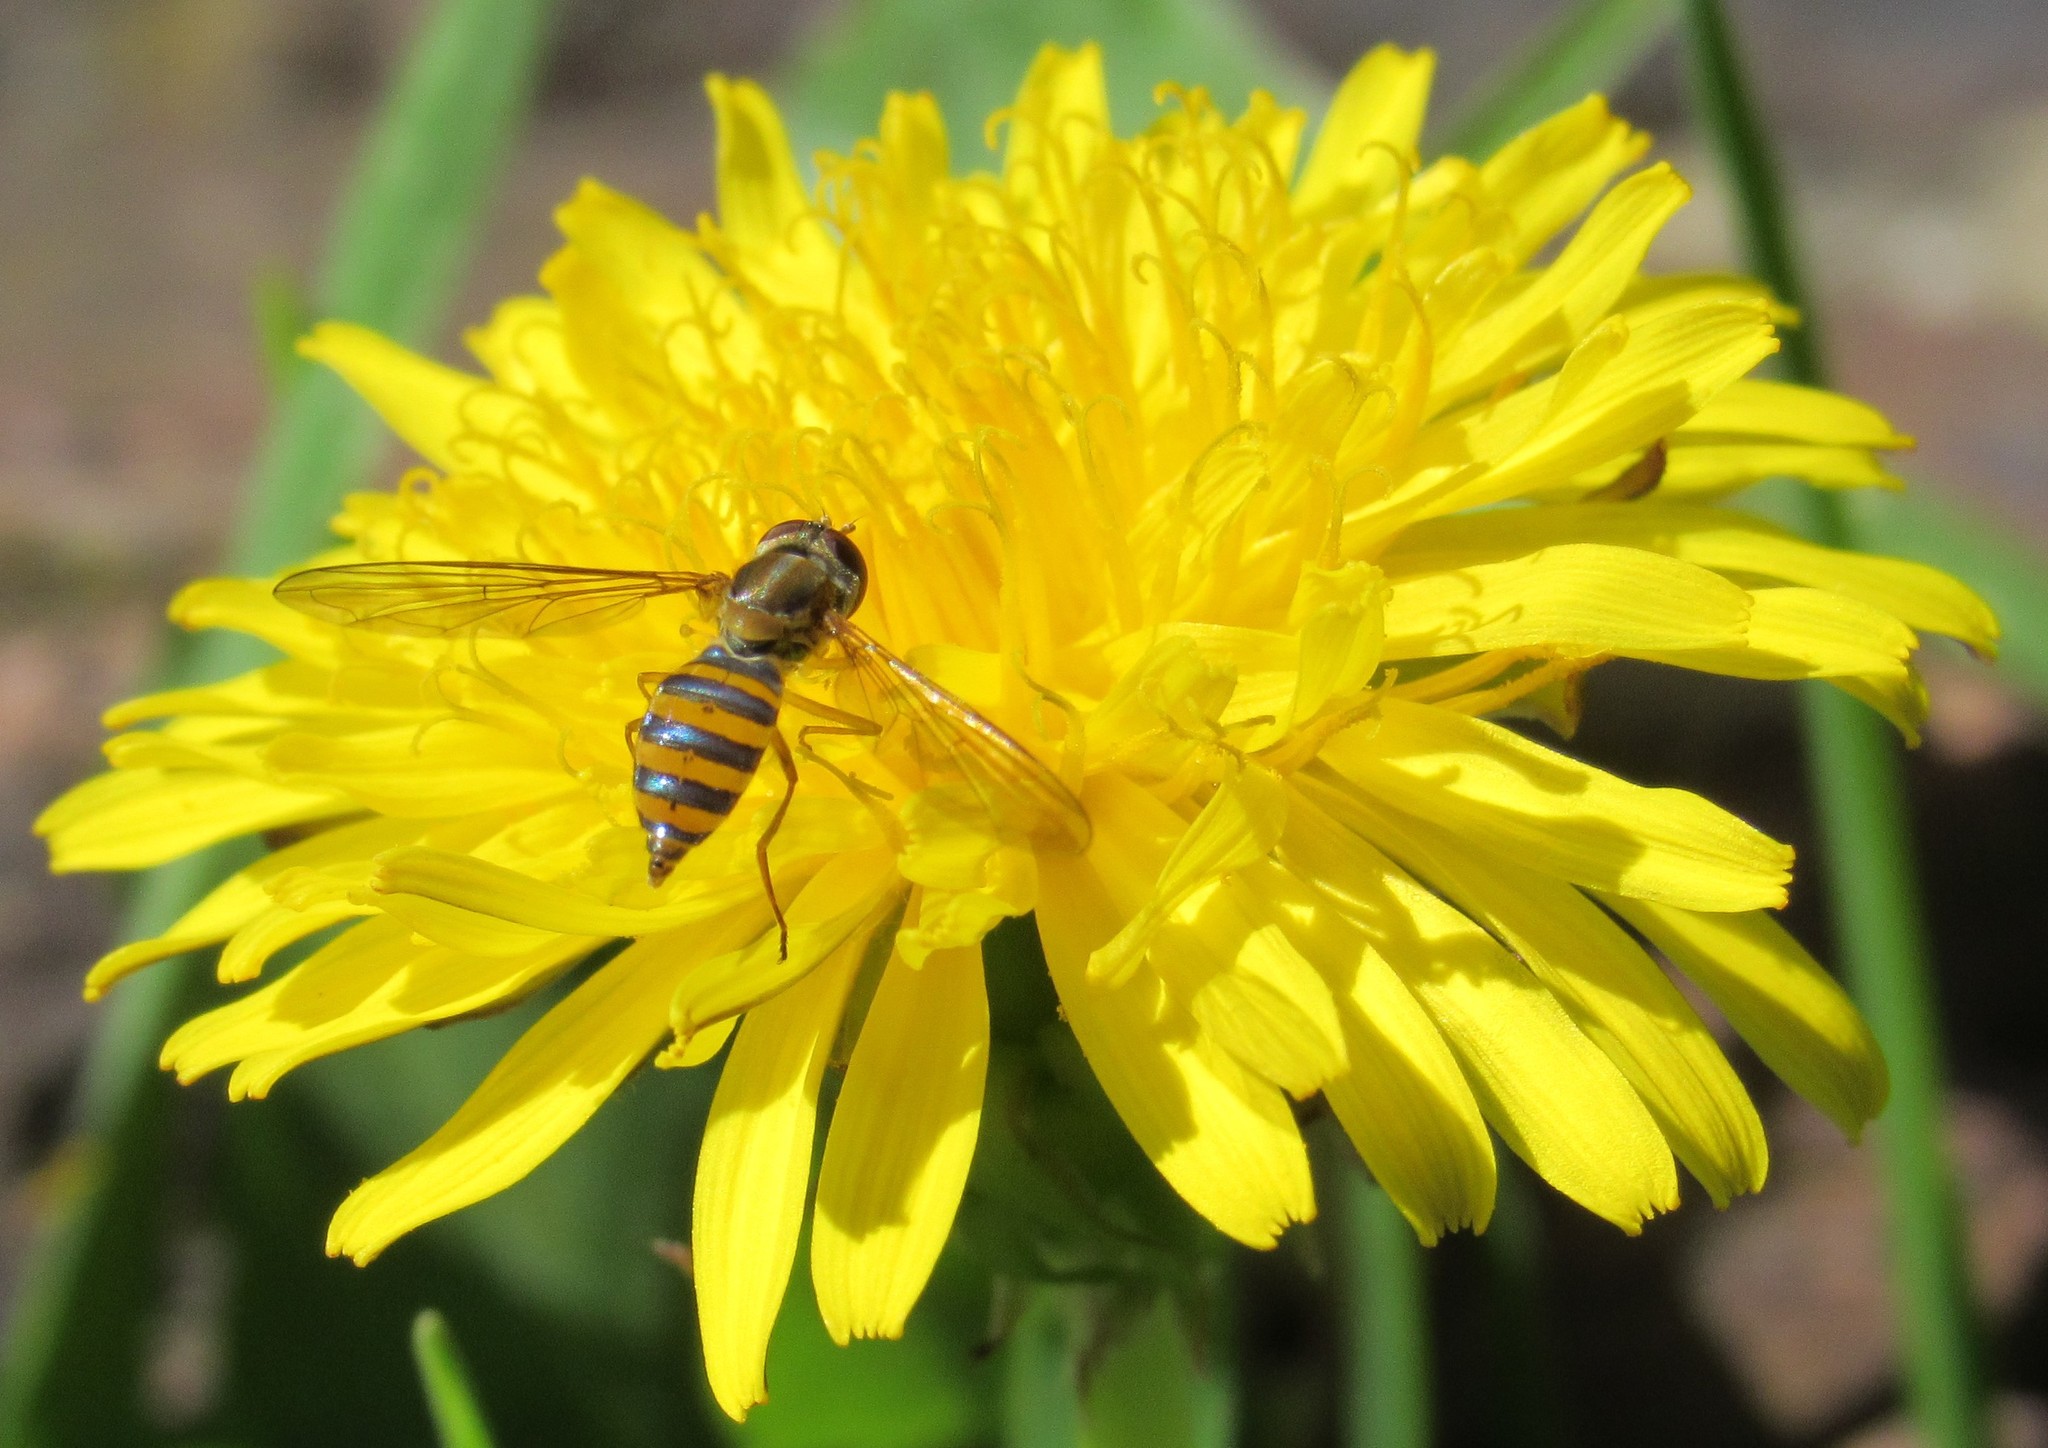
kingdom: Animalia
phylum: Arthropoda
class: Insecta
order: Diptera
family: Syrphidae
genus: Toxomerus
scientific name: Toxomerus
